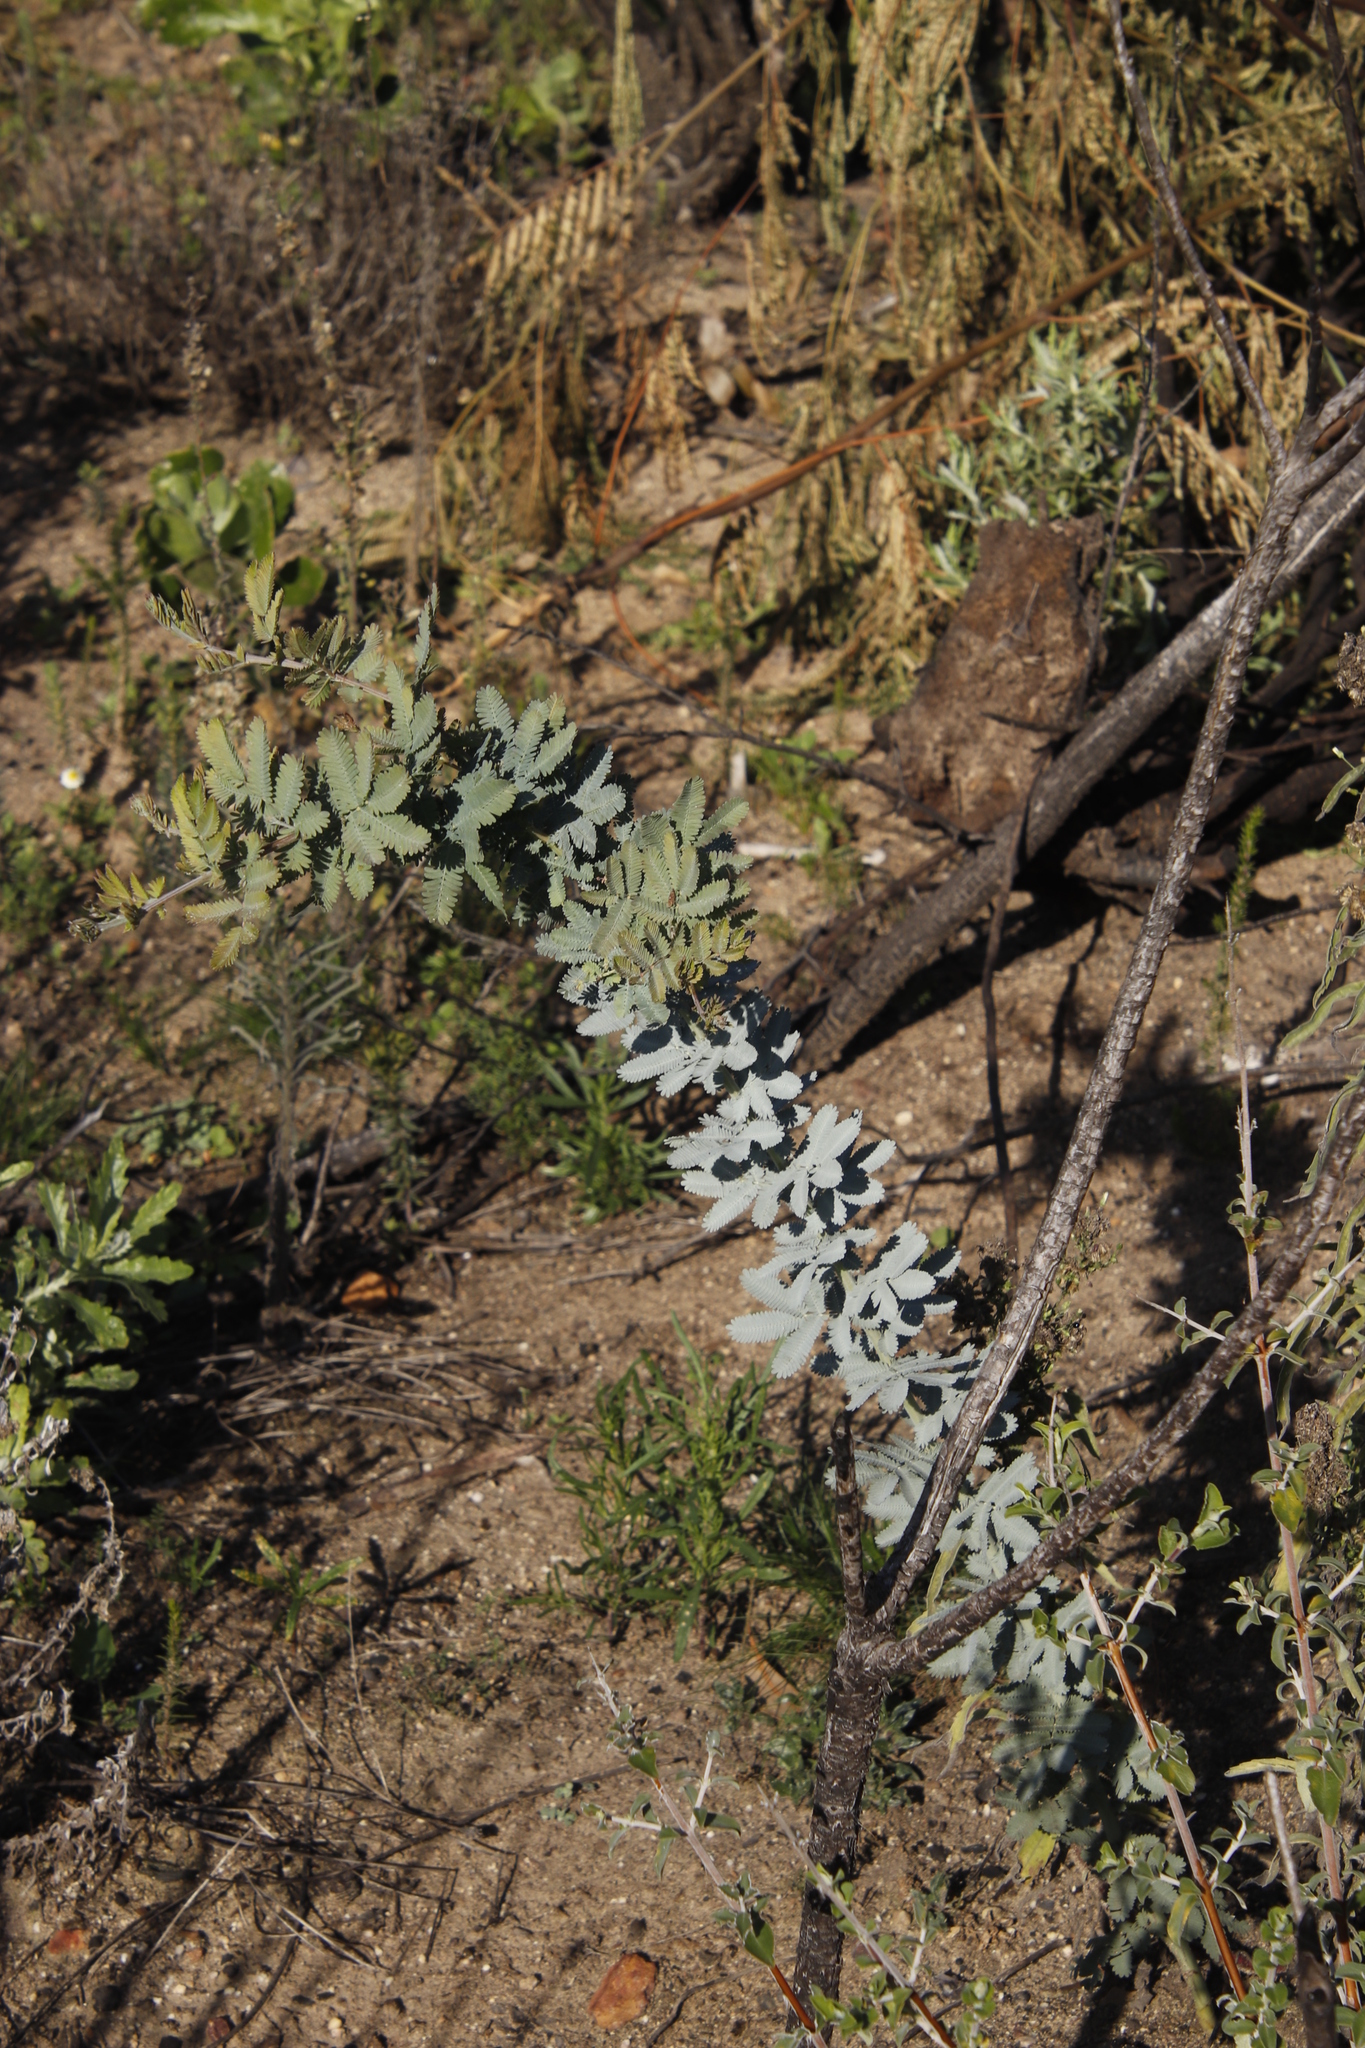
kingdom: Plantae
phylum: Tracheophyta
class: Magnoliopsida
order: Fabales
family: Fabaceae
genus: Acacia
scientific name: Acacia baileyana
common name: Cootamundra wattle
